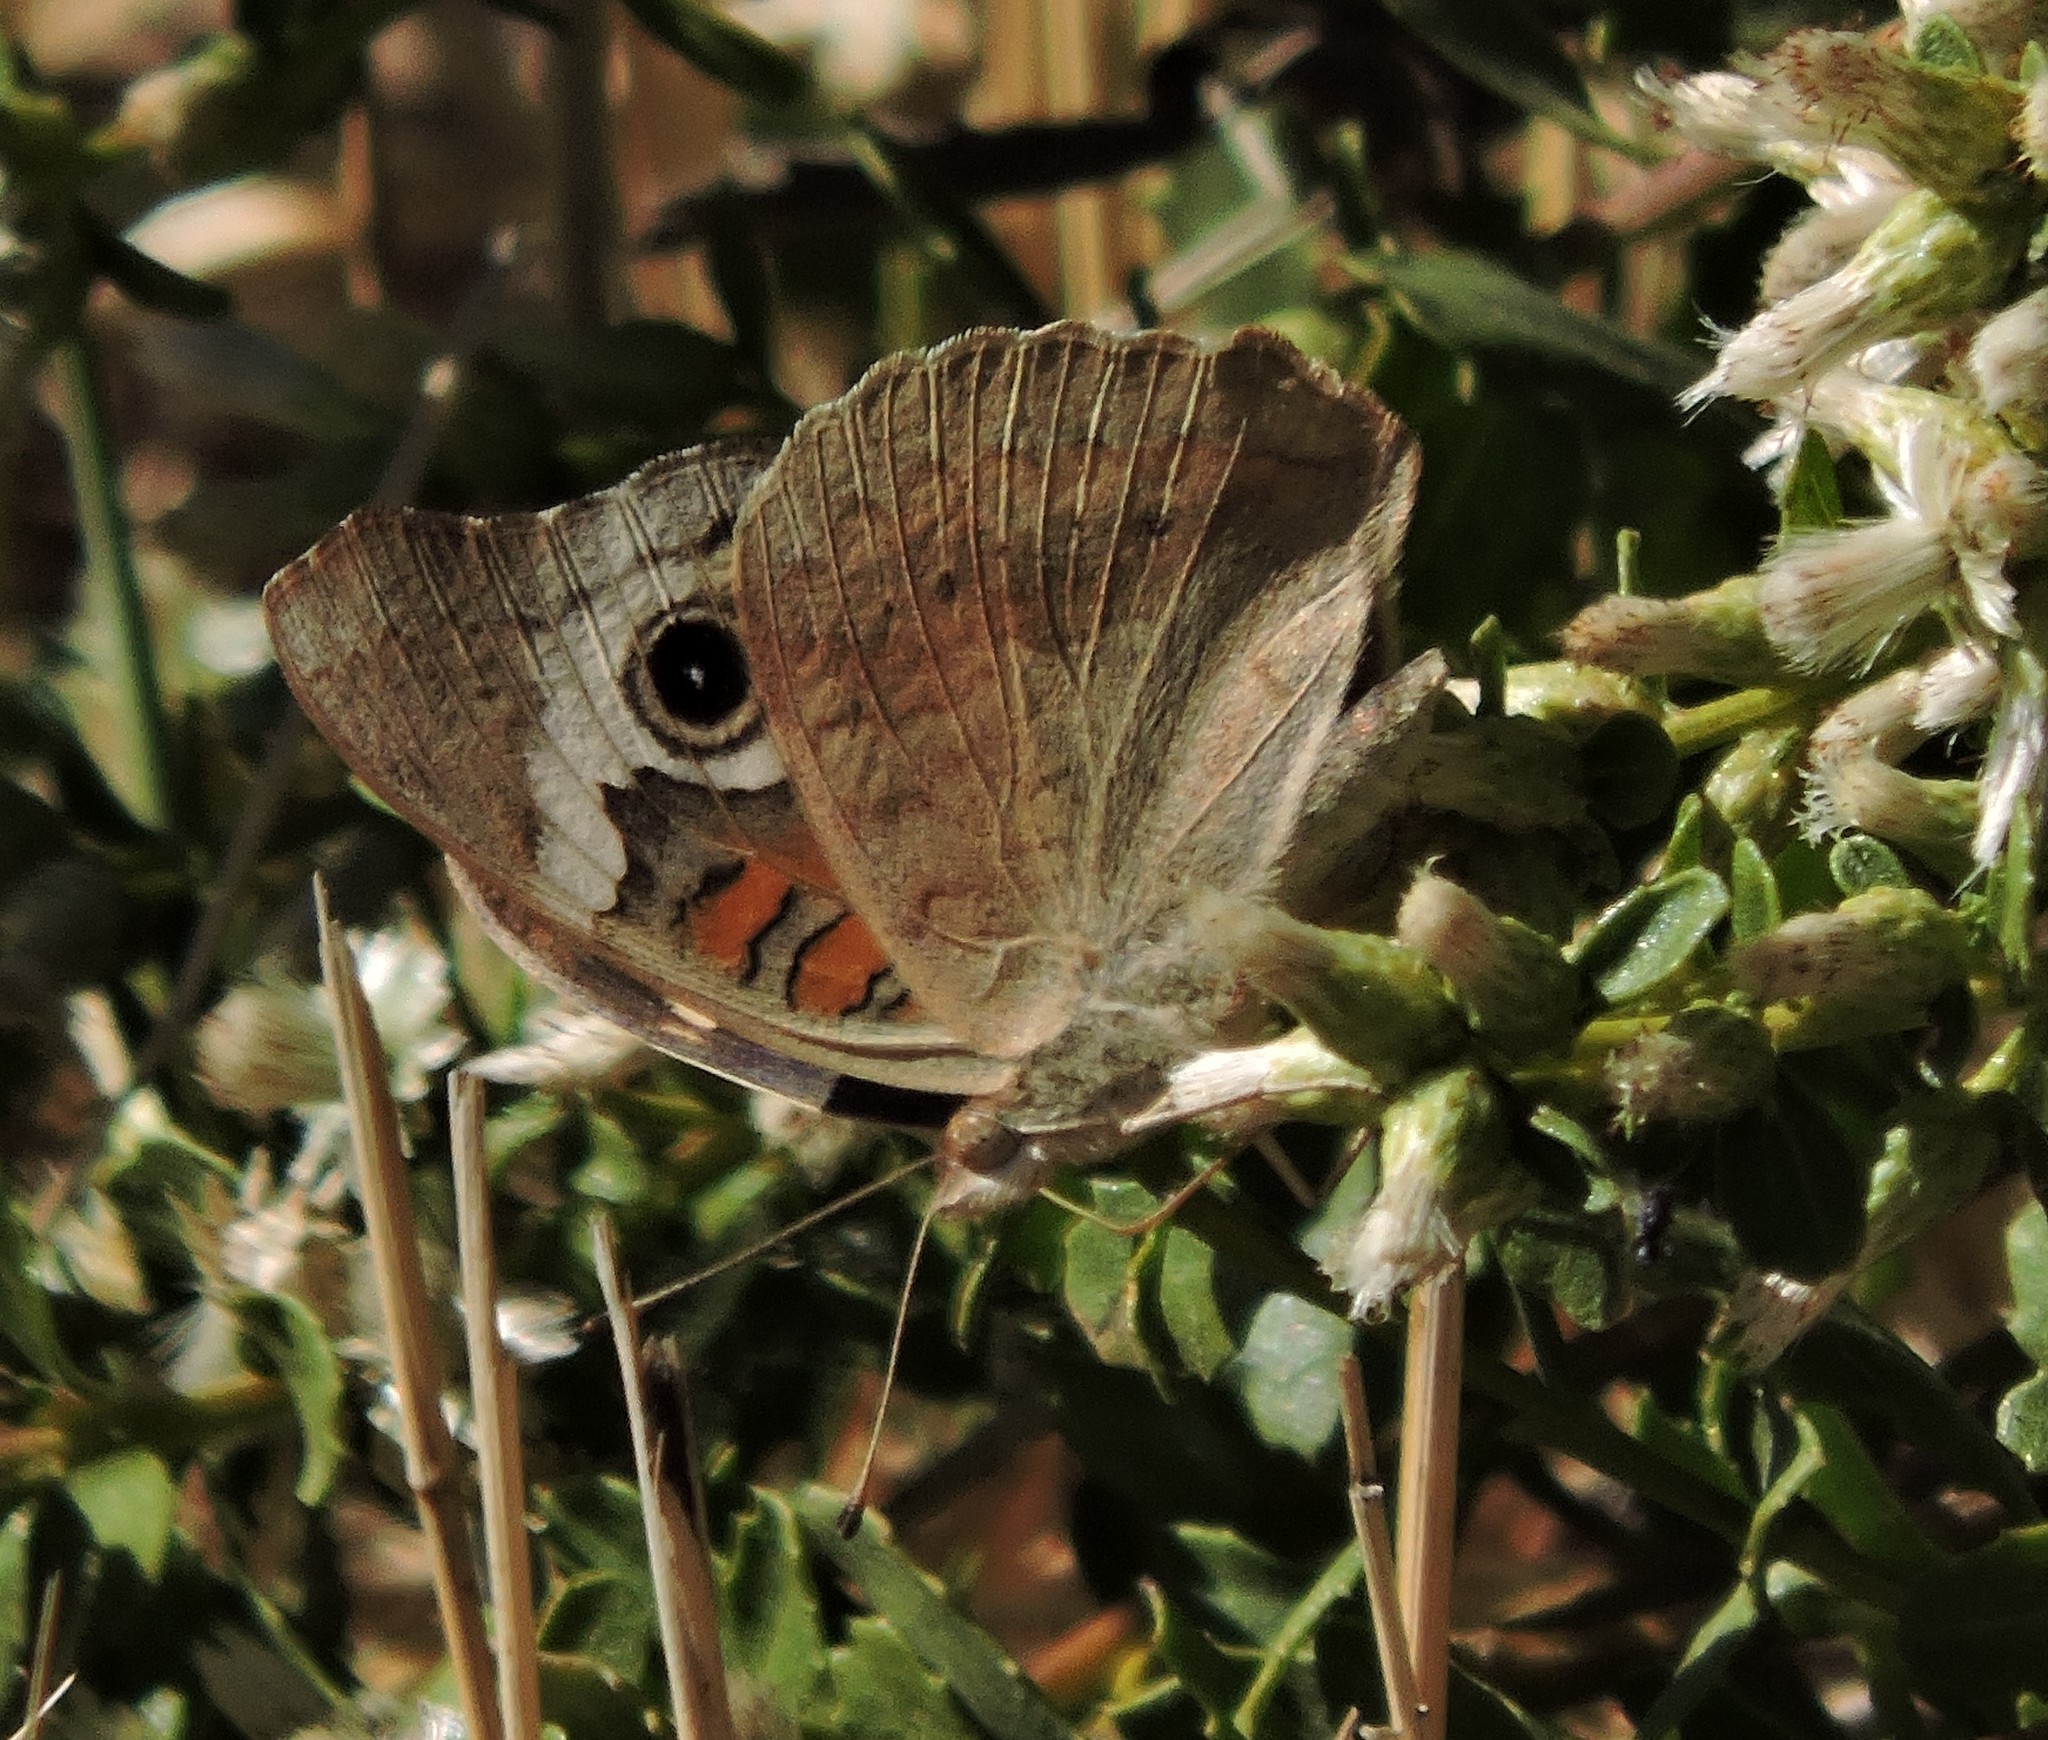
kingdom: Animalia
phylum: Arthropoda
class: Insecta
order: Lepidoptera
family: Nymphalidae
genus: Junonia
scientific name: Junonia grisea
